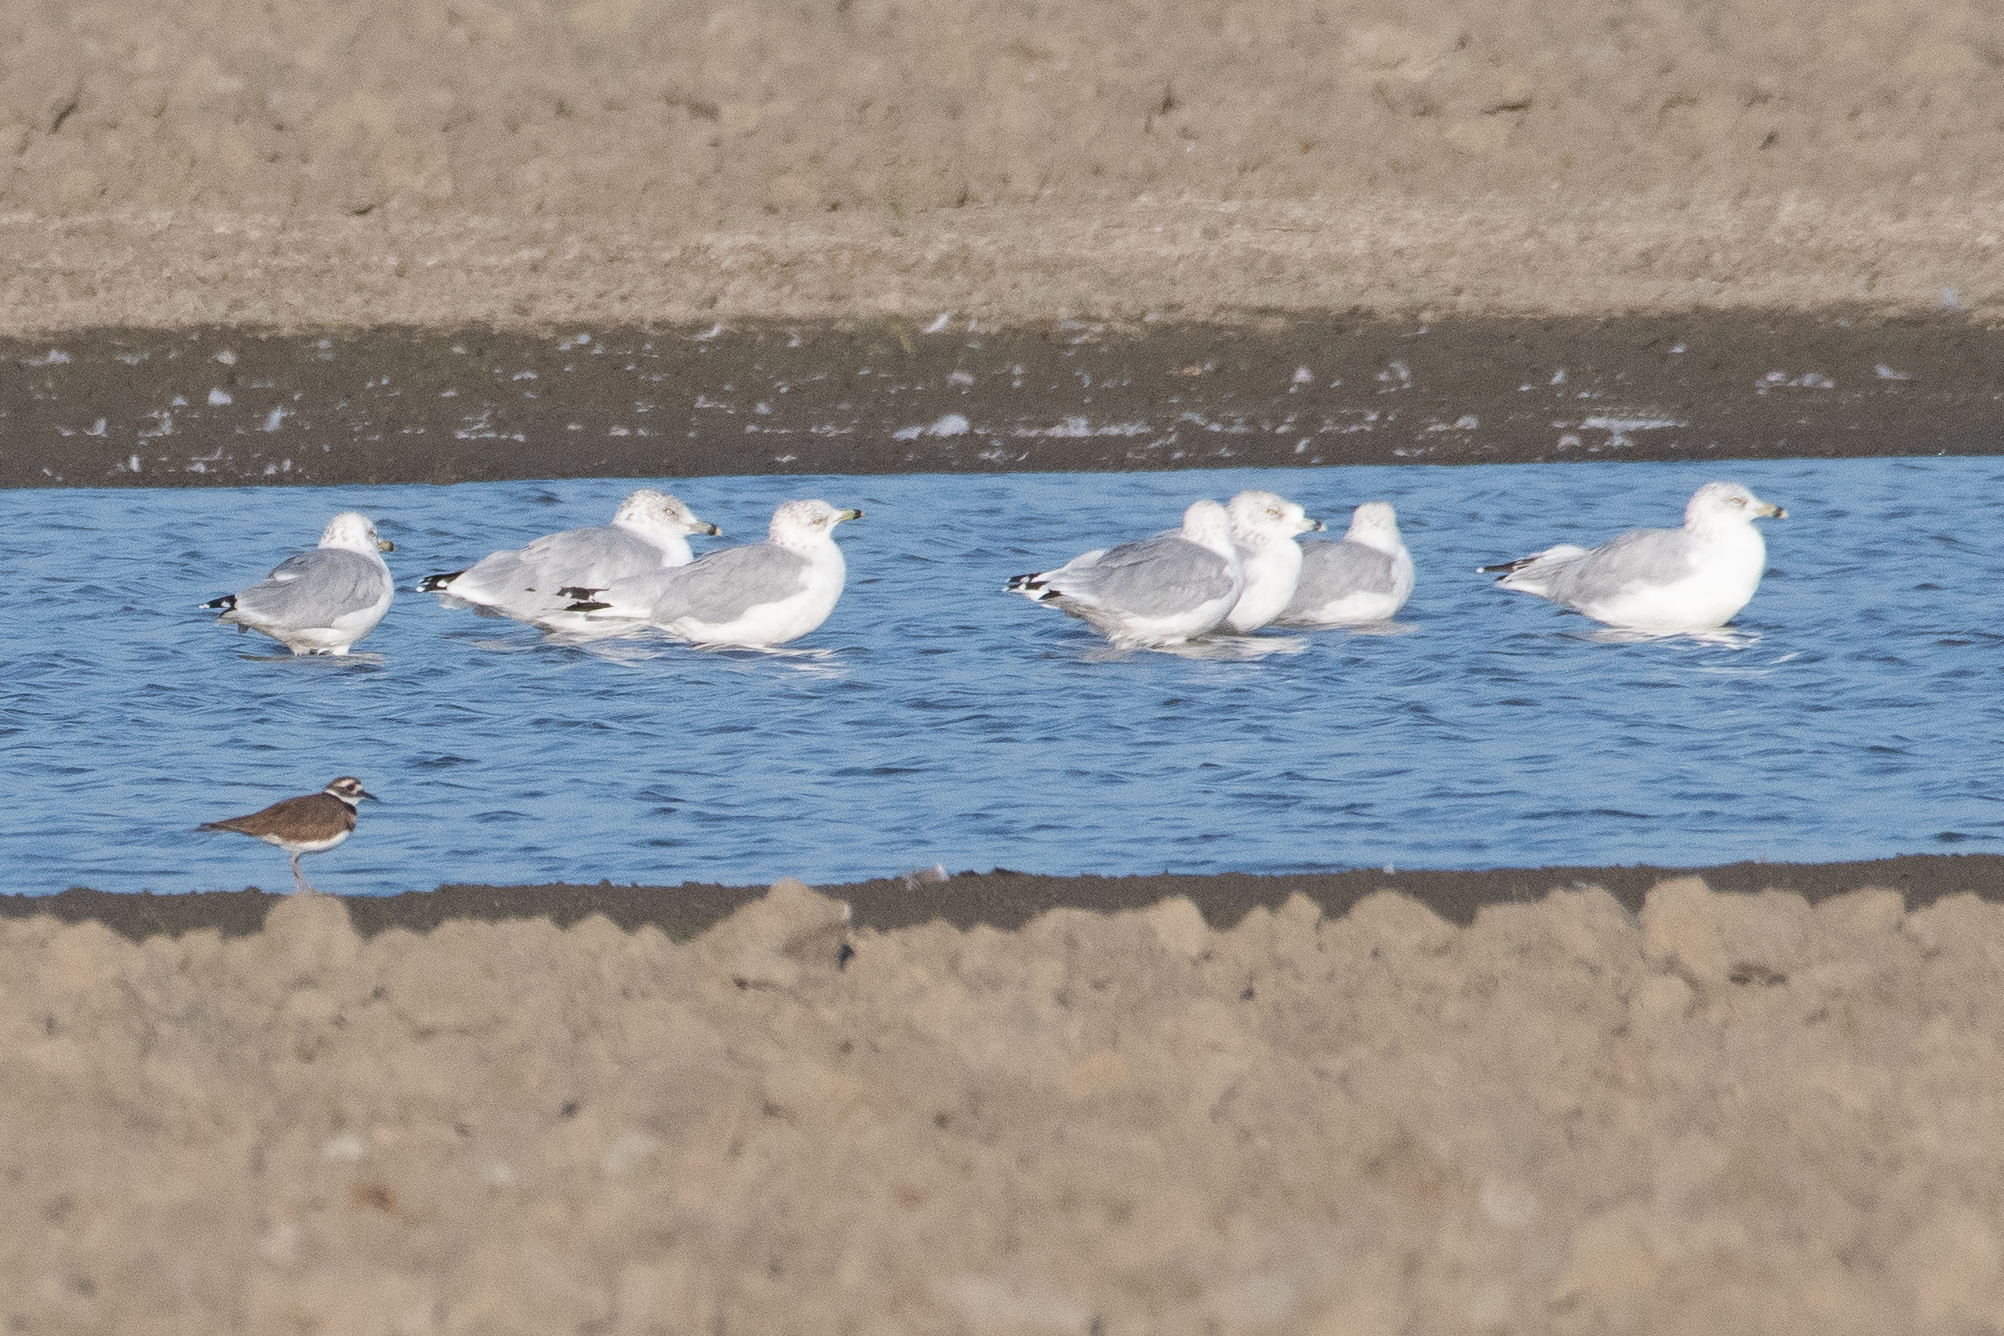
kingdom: Animalia
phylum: Chordata
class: Aves
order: Charadriiformes
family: Laridae
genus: Larus
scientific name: Larus delawarensis
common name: Ring-billed gull
